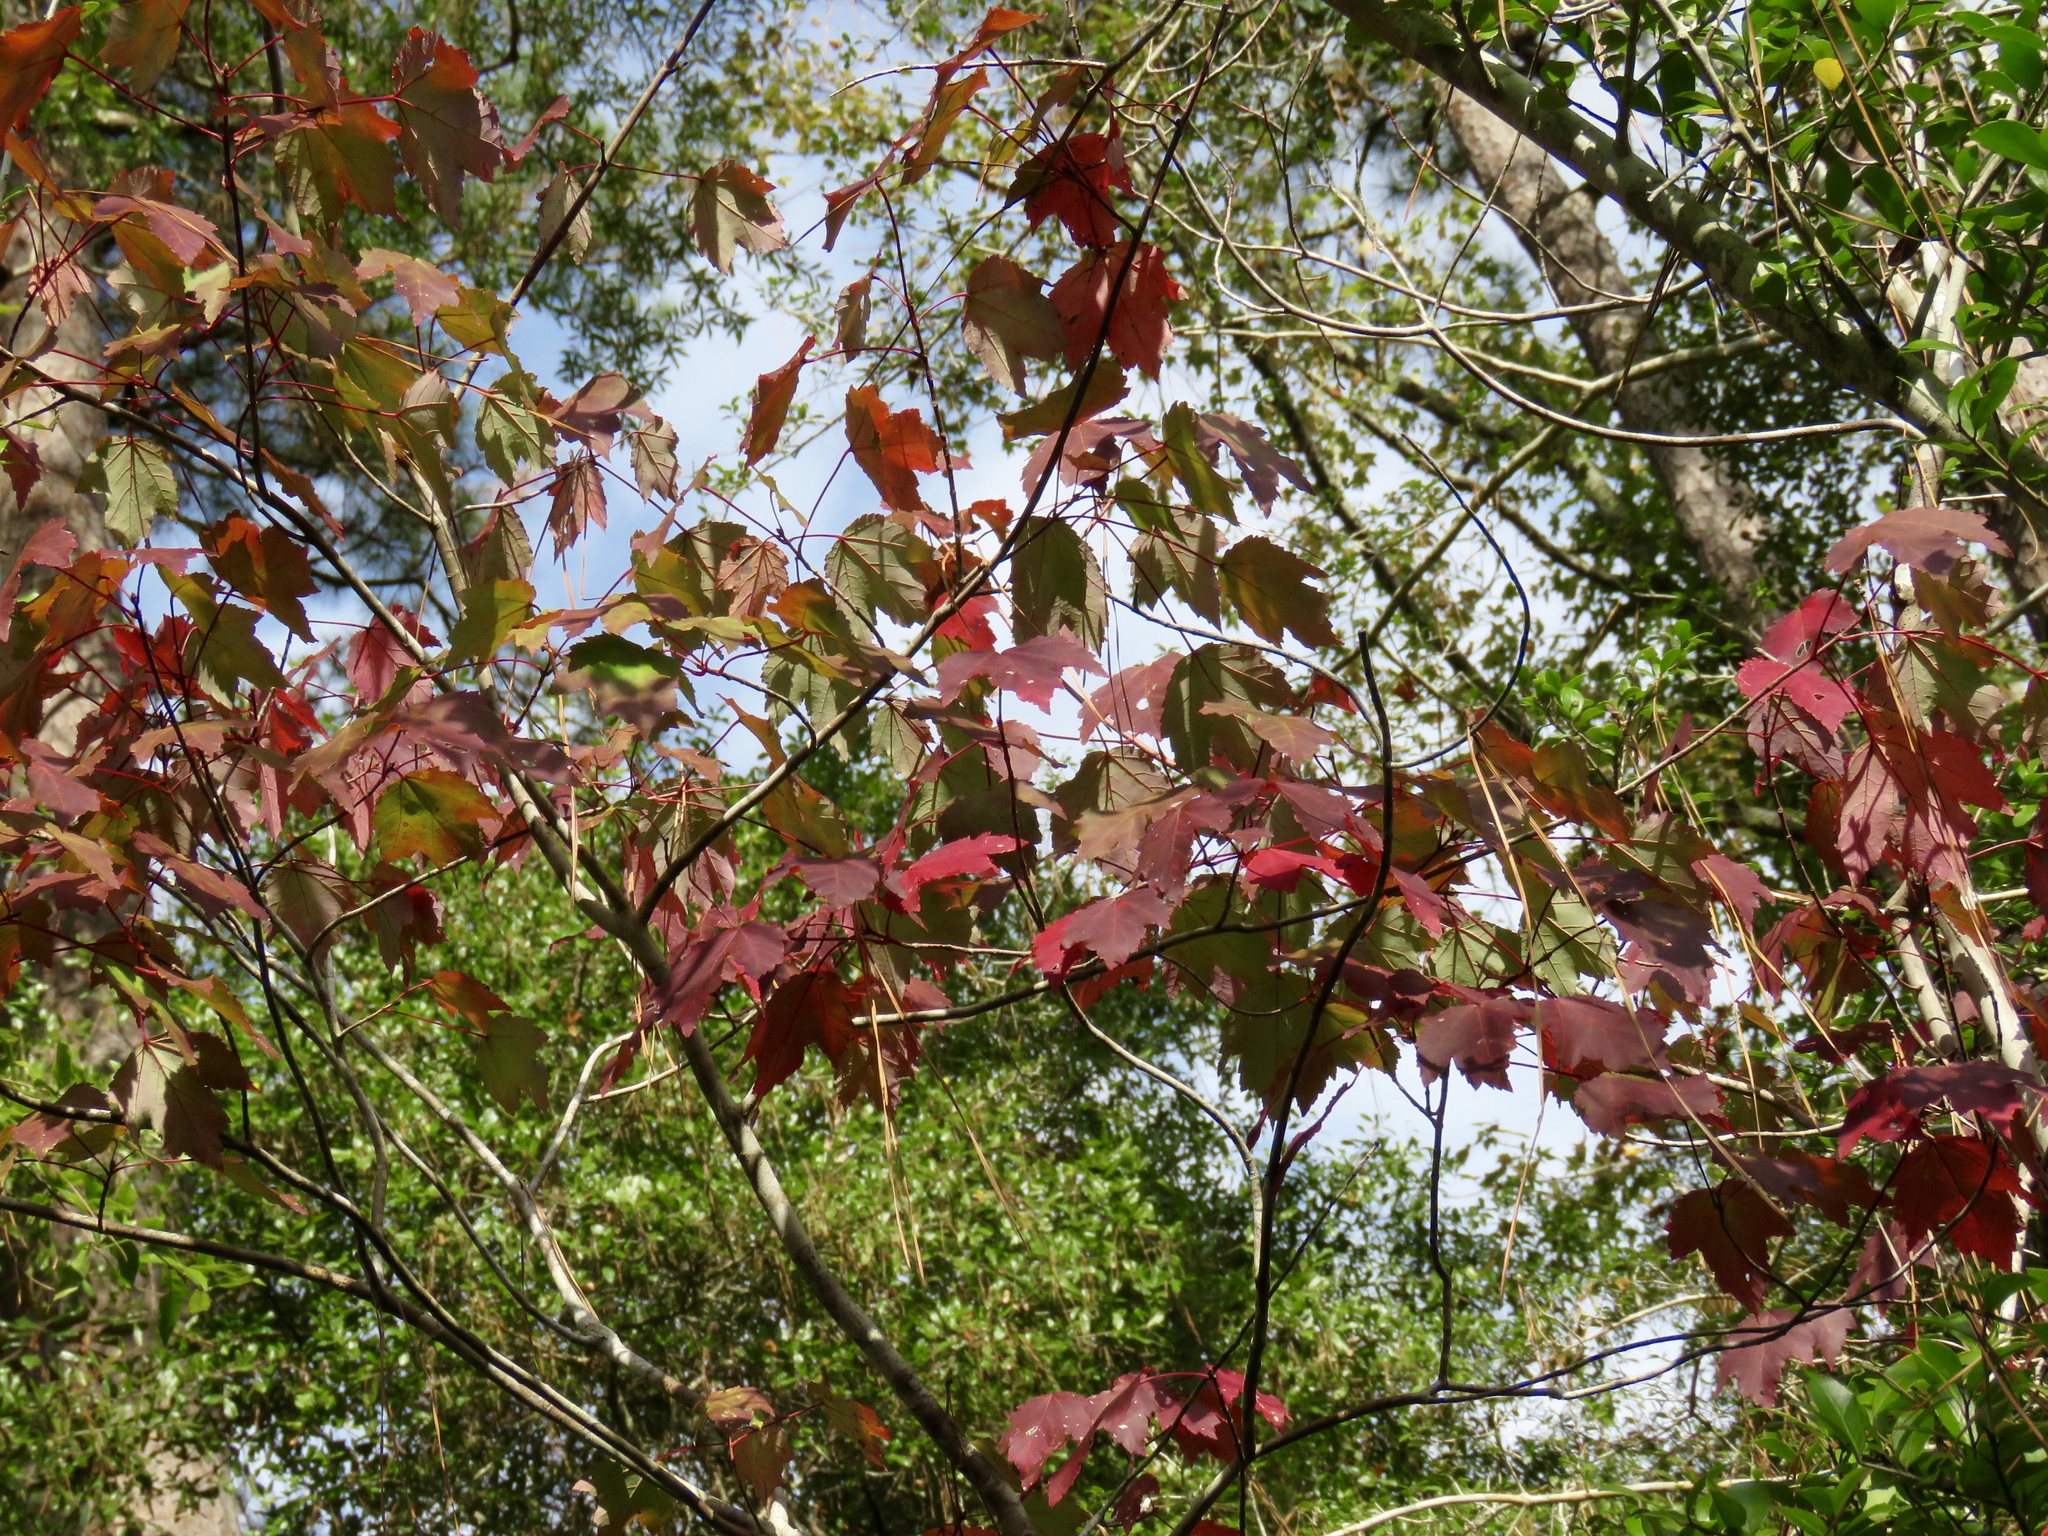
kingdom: Plantae
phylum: Tracheophyta
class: Magnoliopsida
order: Sapindales
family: Sapindaceae
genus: Acer
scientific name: Acer rubrum
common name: Red maple
